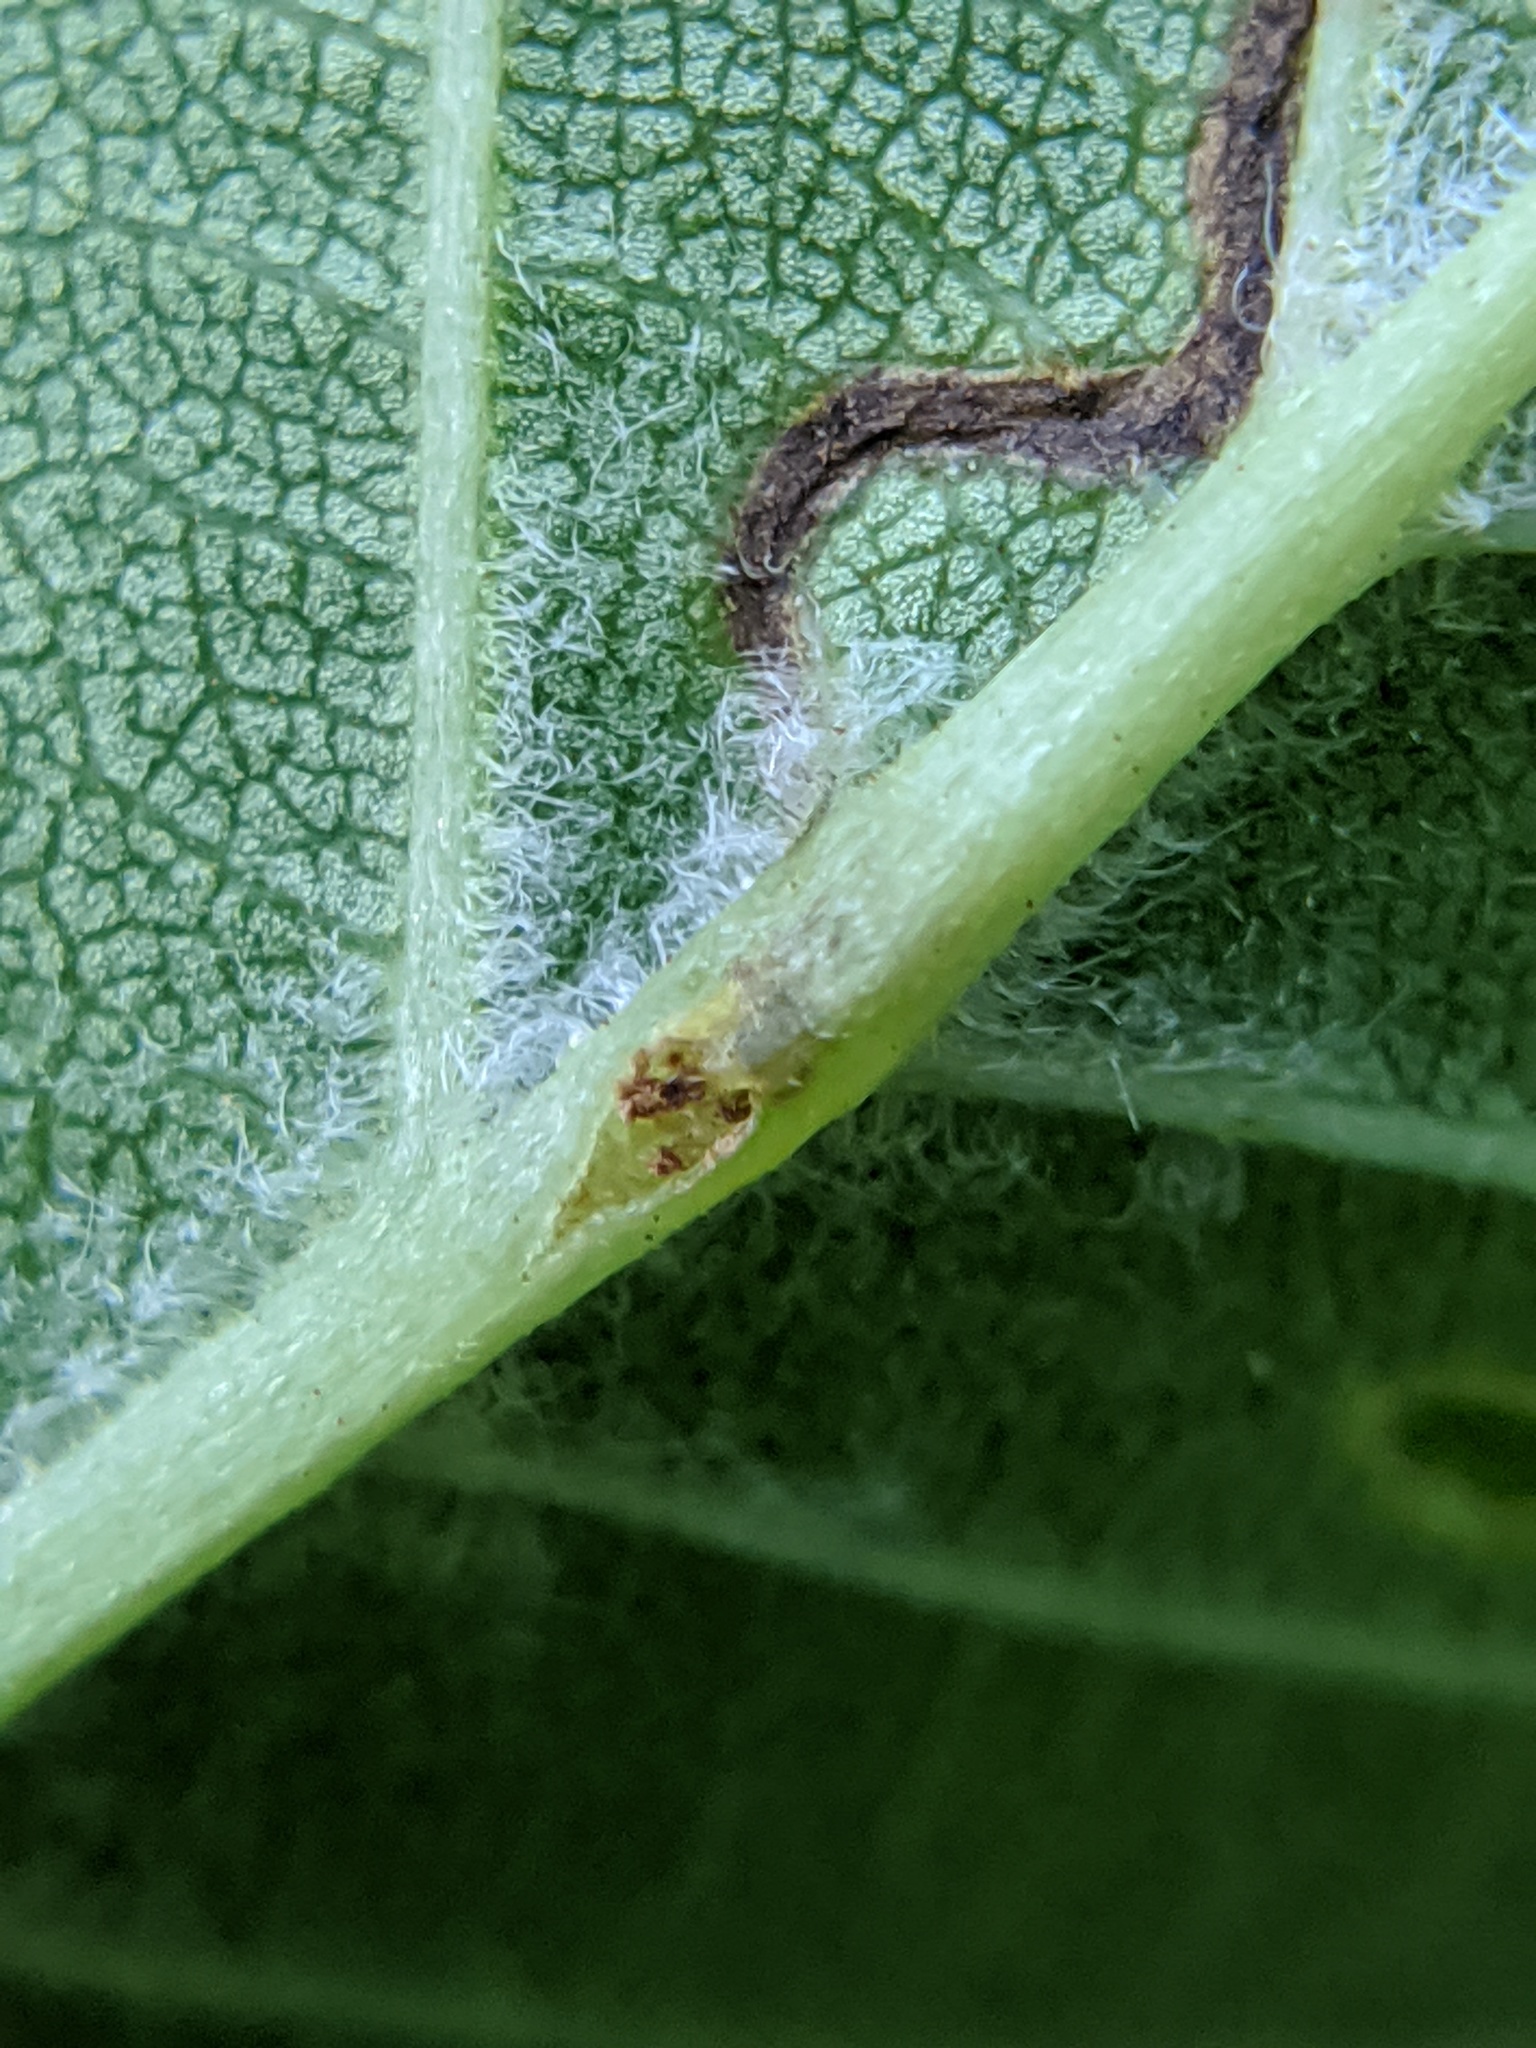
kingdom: Animalia
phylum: Arthropoda
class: Insecta
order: Coleoptera
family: Curculionidae
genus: Orchestes
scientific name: Orchestes steppensis
